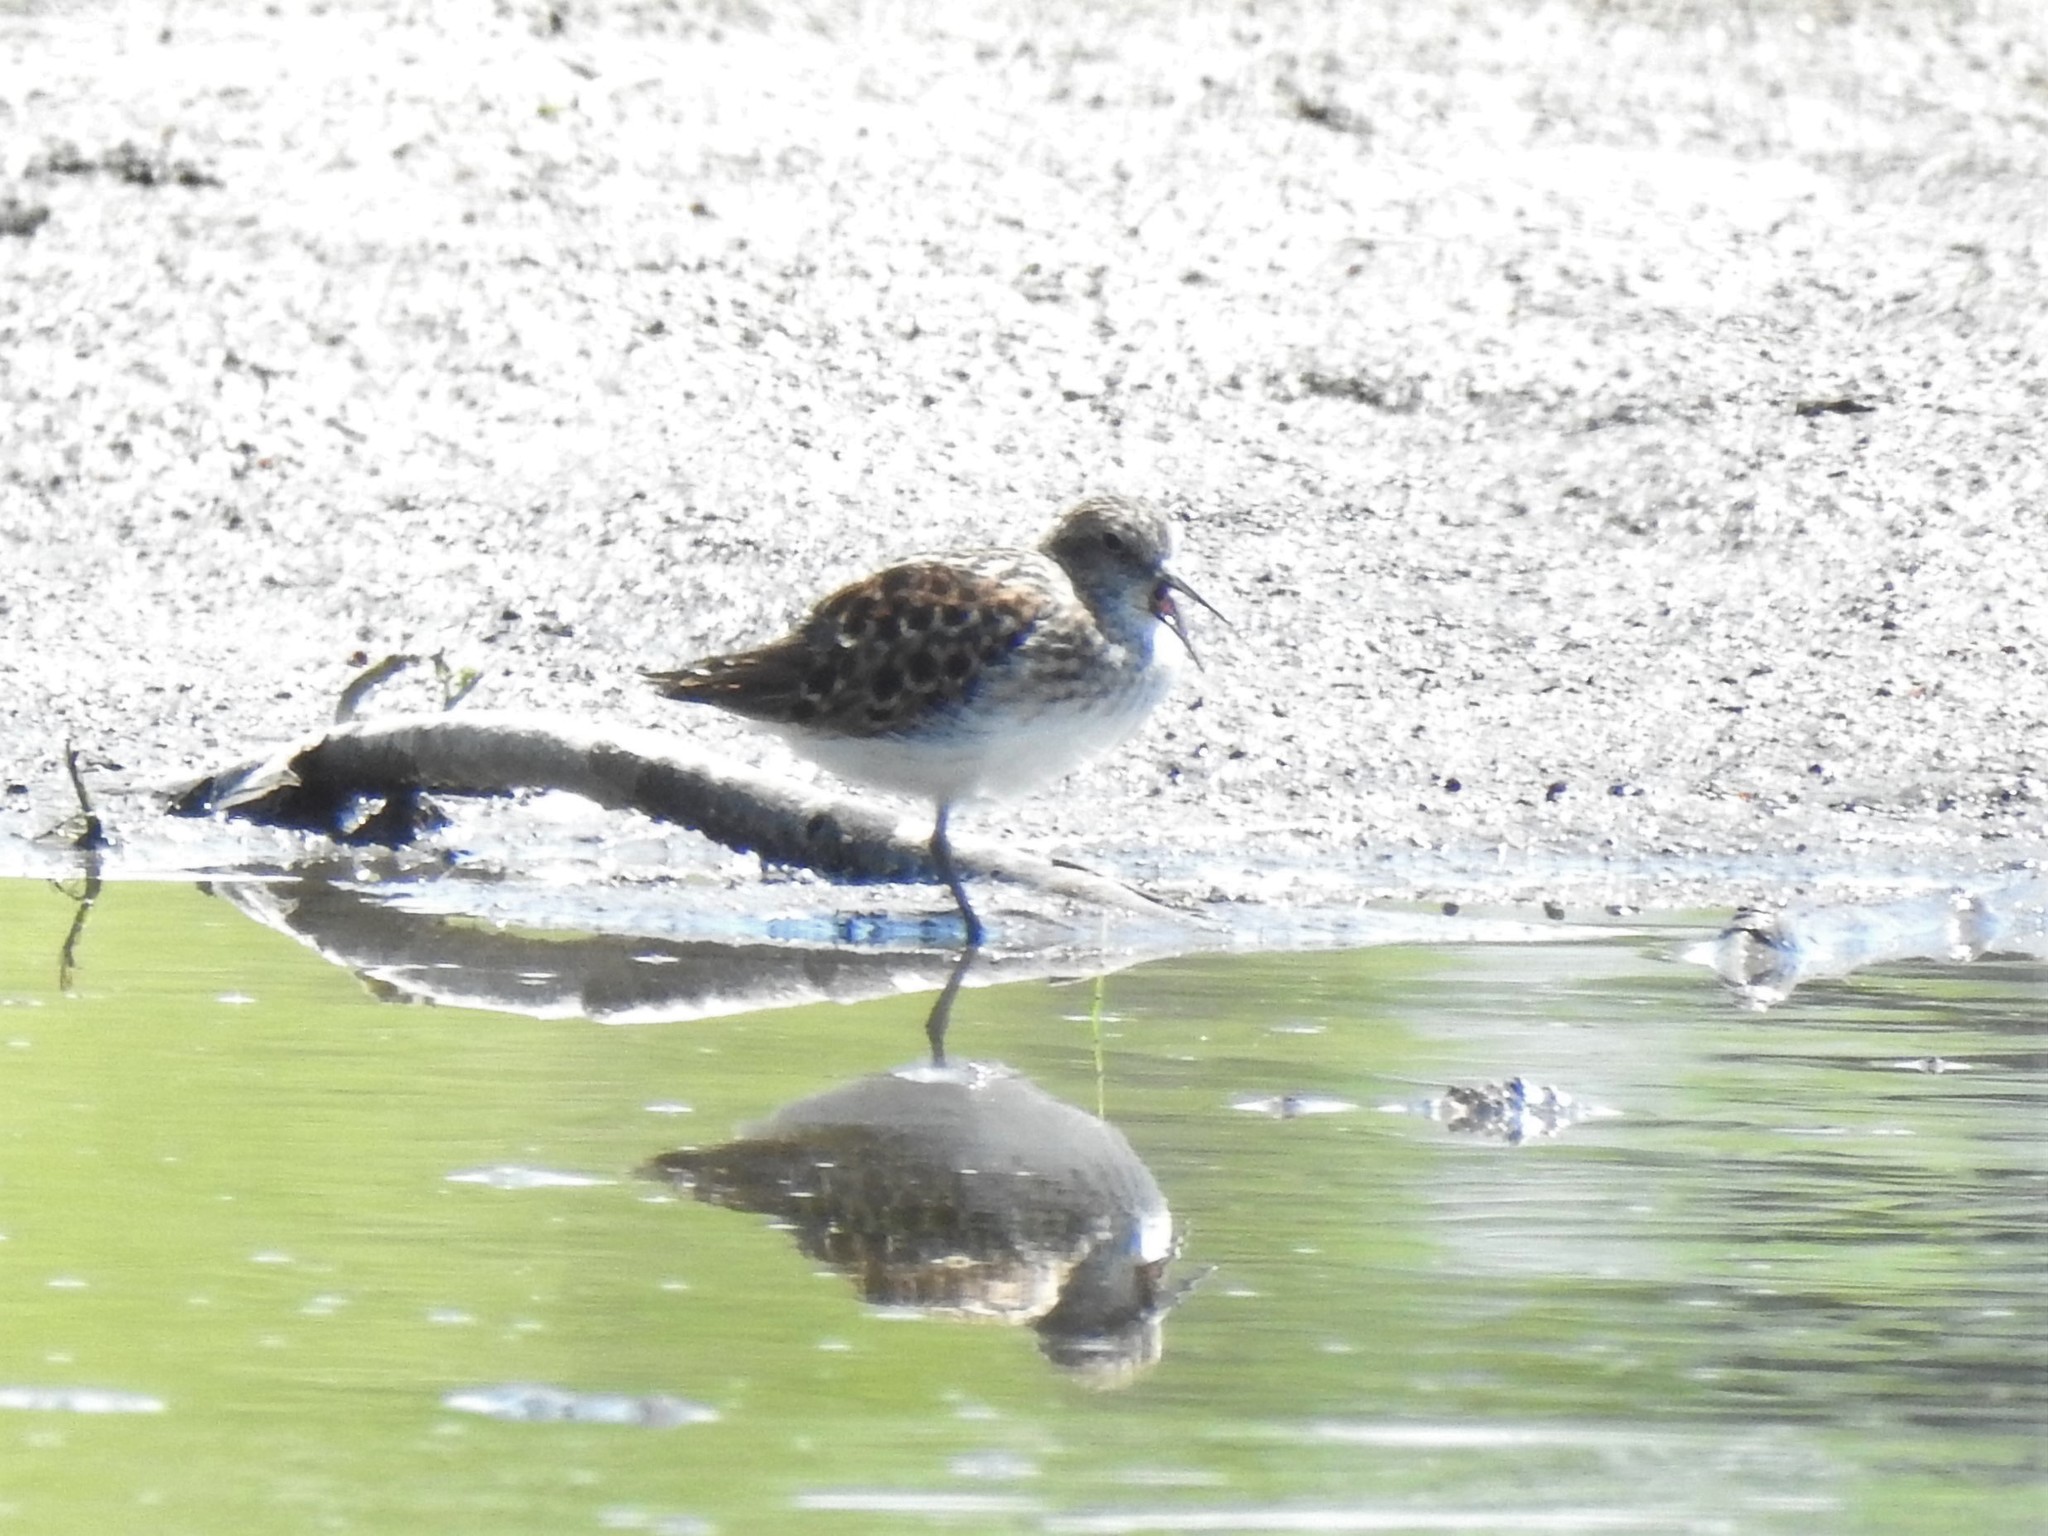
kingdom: Animalia
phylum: Chordata
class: Aves
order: Charadriiformes
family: Scolopacidae
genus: Calidris
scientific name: Calidris melanotos
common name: Pectoral sandpiper
